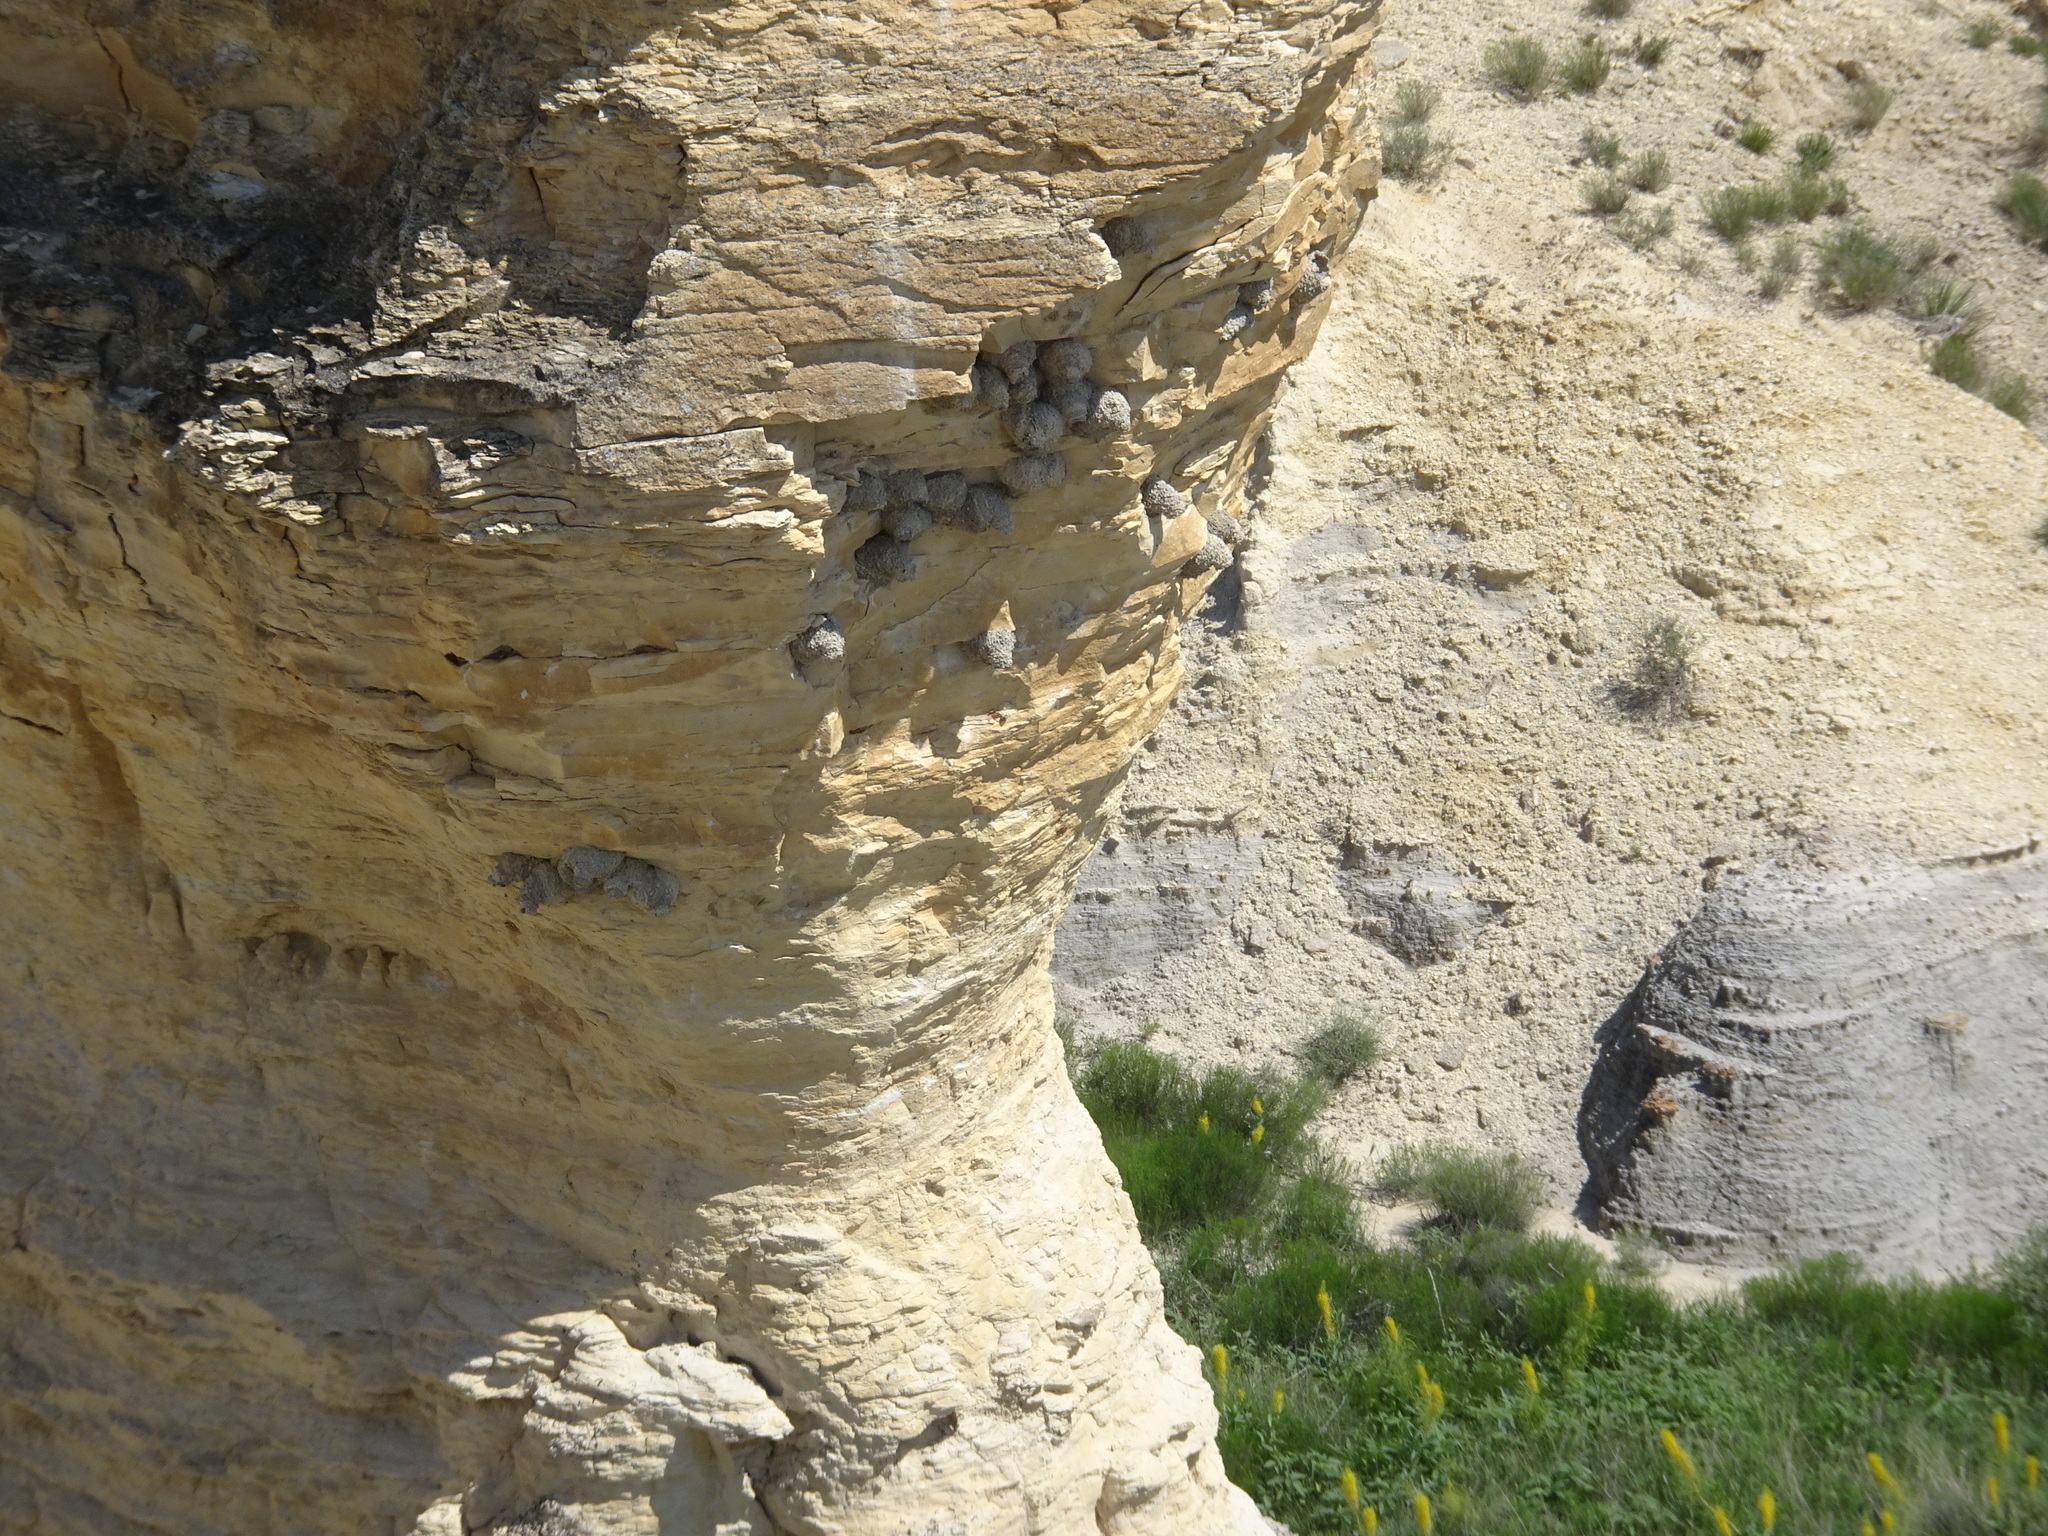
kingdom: Animalia
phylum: Chordata
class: Aves
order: Passeriformes
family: Hirundinidae
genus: Petrochelidon
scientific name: Petrochelidon pyrrhonota
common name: American cliff swallow
